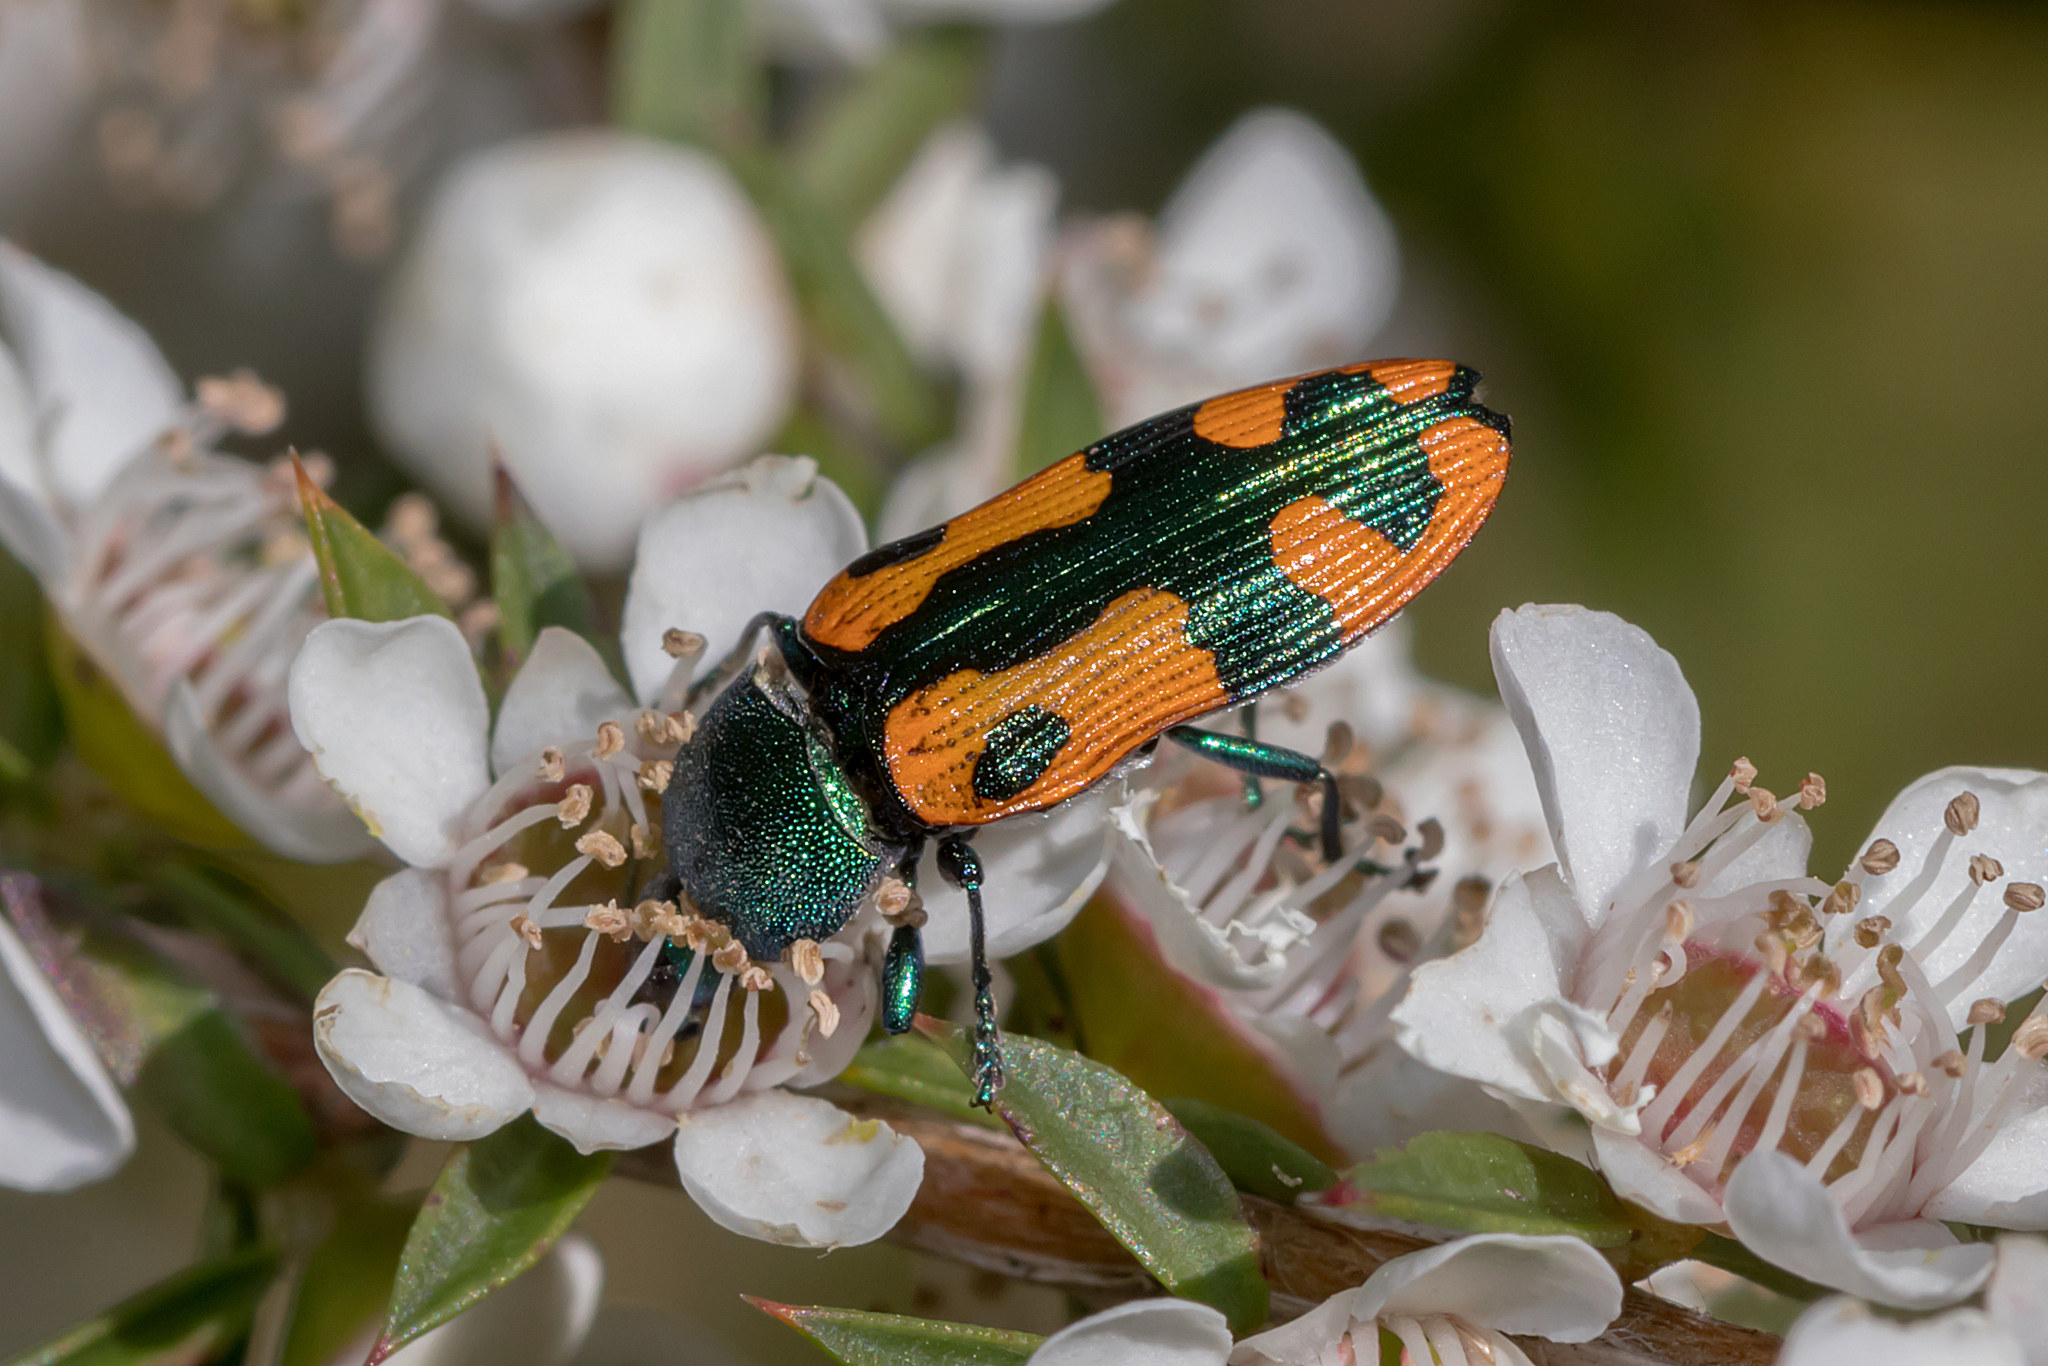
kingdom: Animalia
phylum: Arthropoda
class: Insecta
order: Coleoptera
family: Buprestidae
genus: Castiarina
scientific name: Castiarina scalaris
